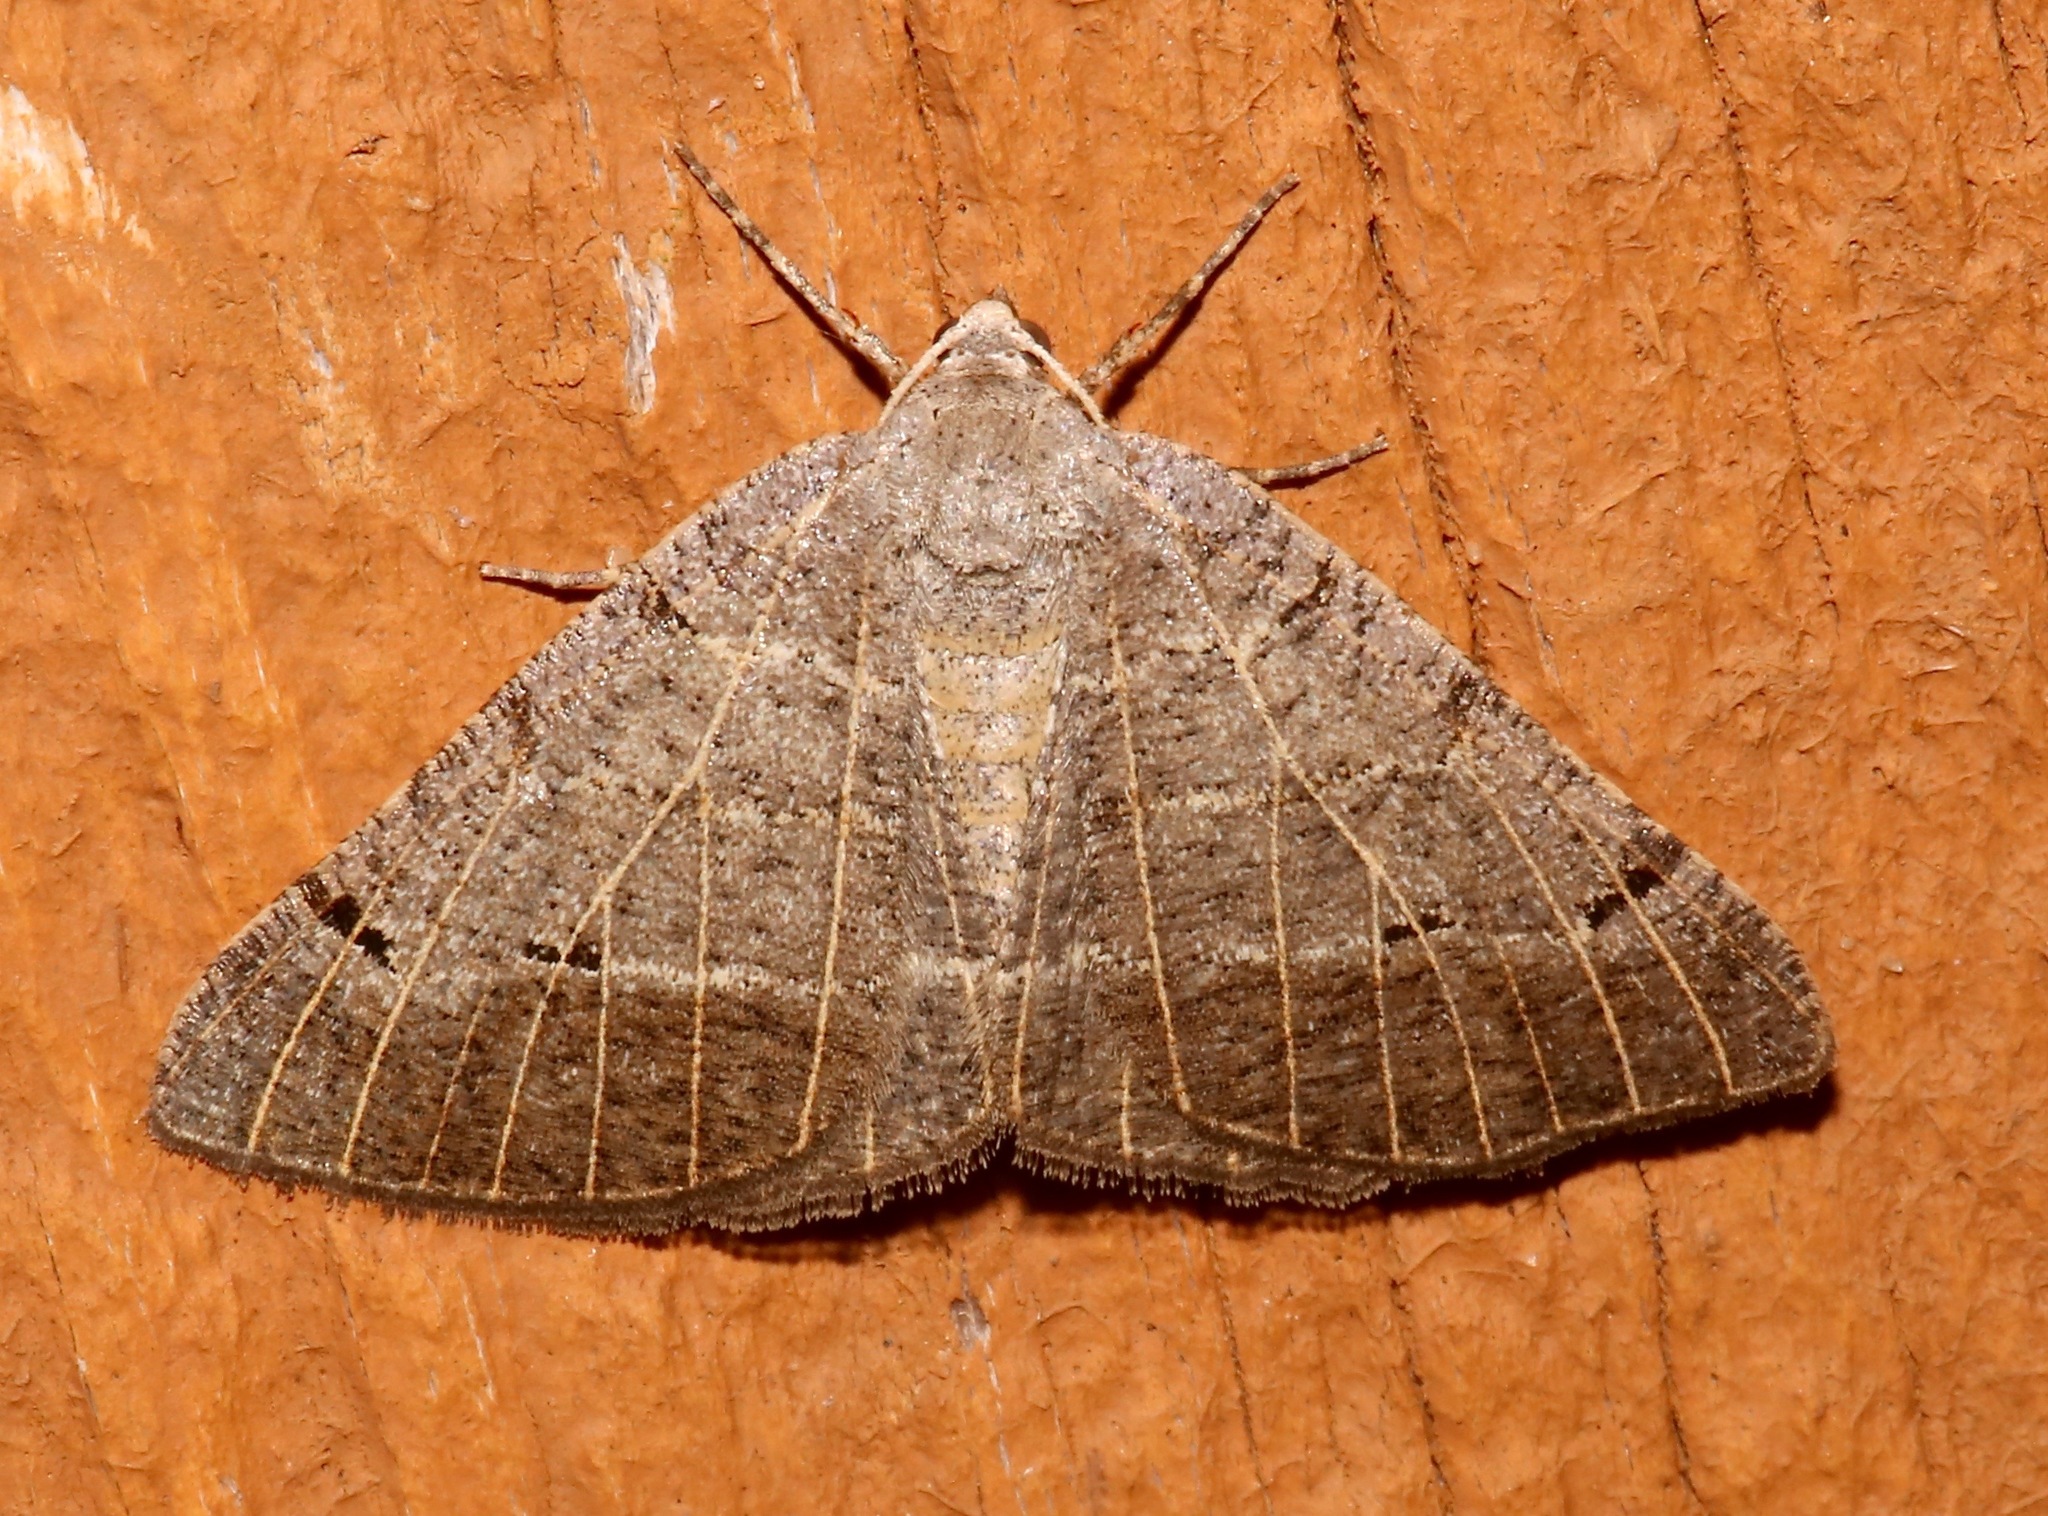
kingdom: Animalia
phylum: Arthropoda
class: Insecta
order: Lepidoptera
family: Geometridae
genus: Isturgia
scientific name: Isturgia dislocaria
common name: Pale-viened enconista
